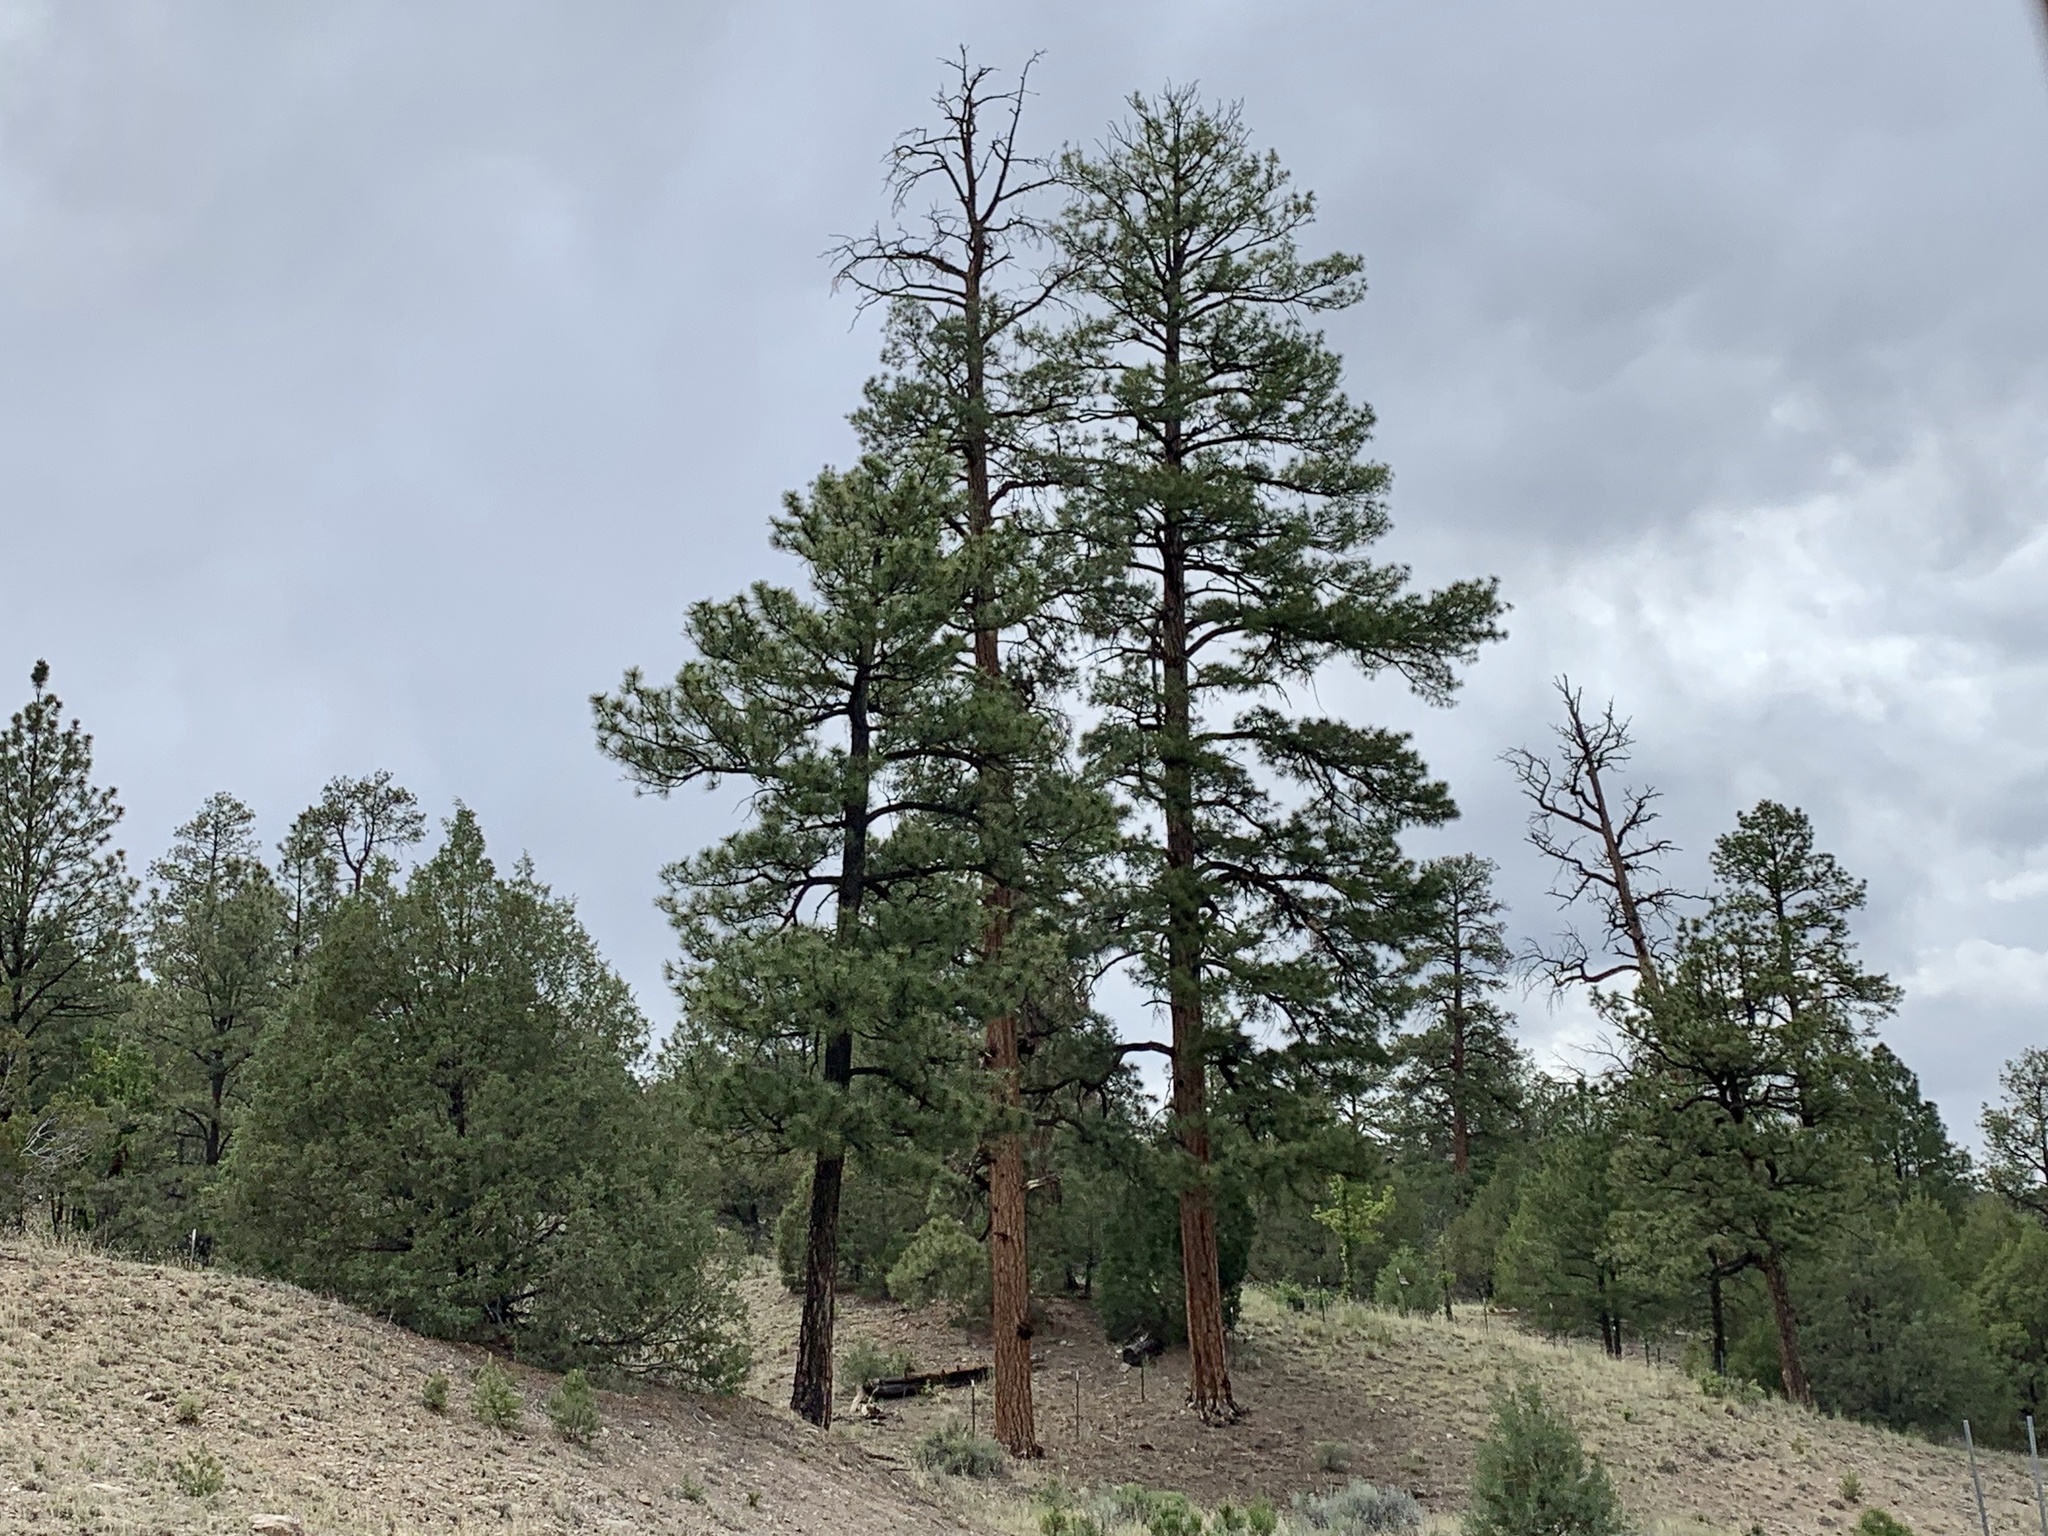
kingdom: Plantae
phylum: Tracheophyta
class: Pinopsida
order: Pinales
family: Pinaceae
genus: Pinus
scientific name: Pinus ponderosa
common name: Western yellow-pine
